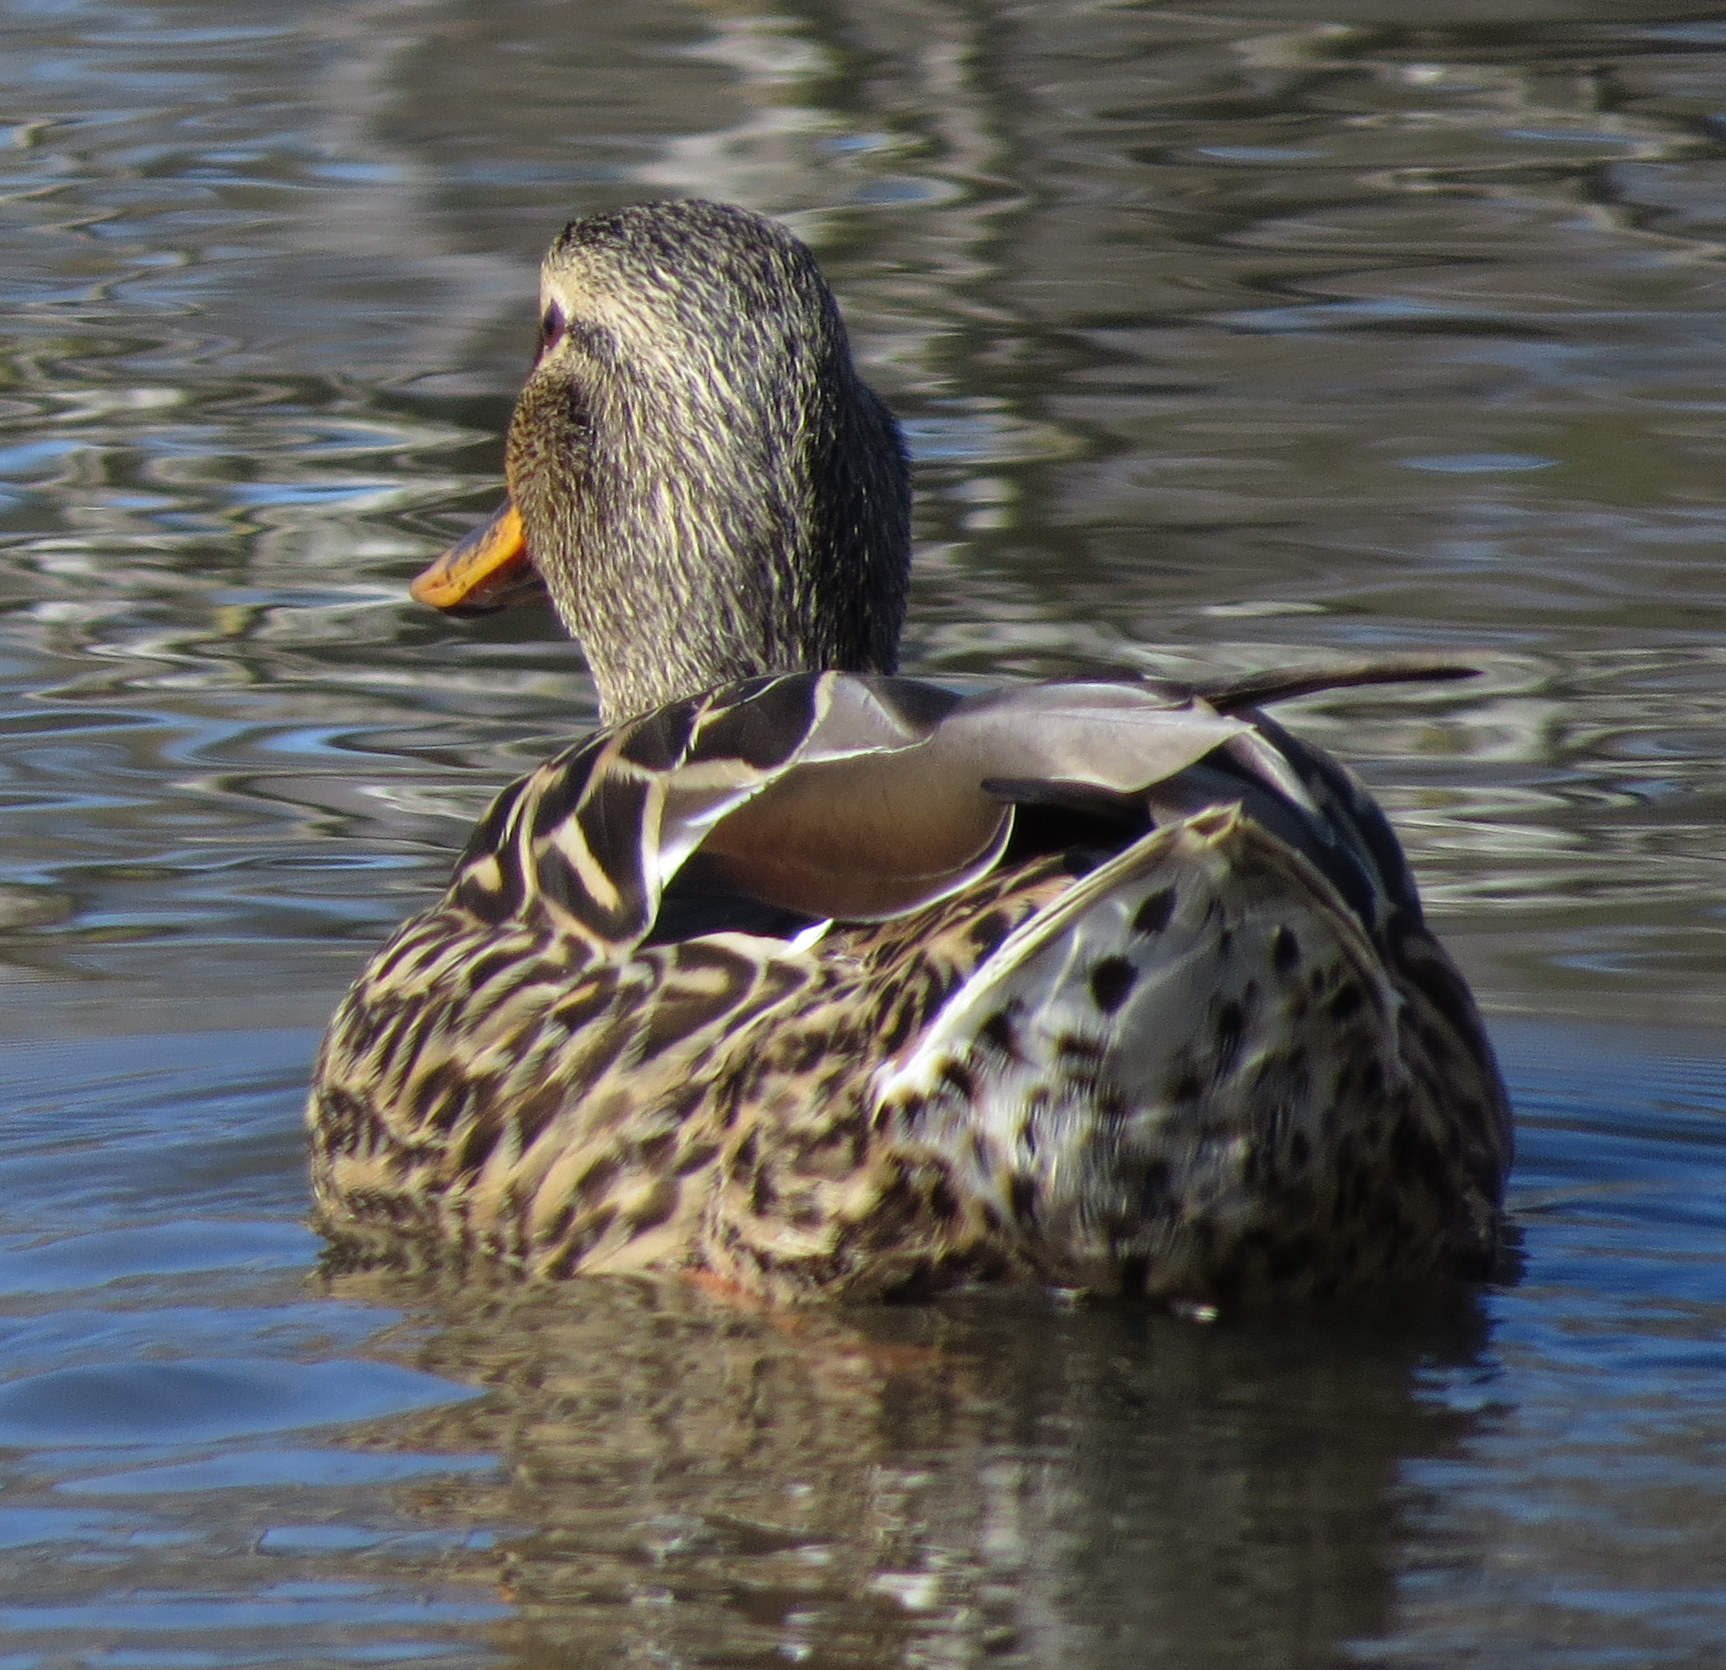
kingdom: Animalia
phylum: Chordata
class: Aves
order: Anseriformes
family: Anatidae
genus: Anas
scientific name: Anas platyrhynchos
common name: Mallard
